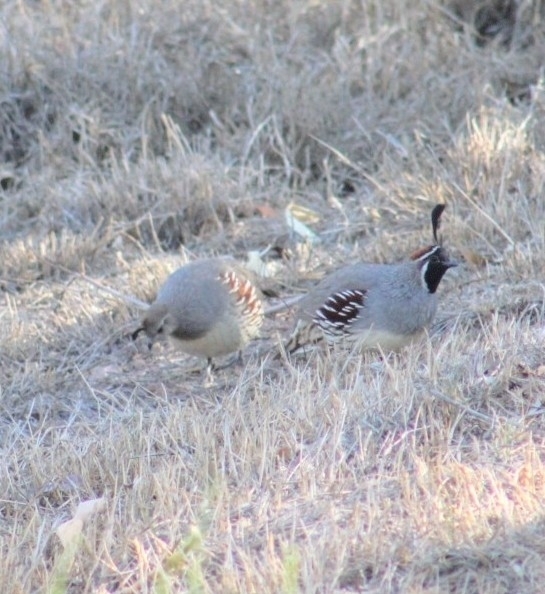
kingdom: Animalia
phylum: Chordata
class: Aves
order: Galliformes
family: Odontophoridae
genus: Callipepla
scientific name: Callipepla gambelii
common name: Gambel's quail
